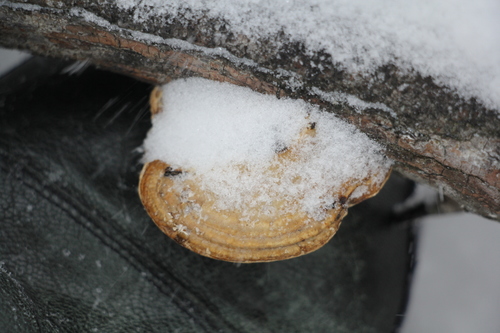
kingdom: Fungi
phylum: Basidiomycota
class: Agaricomycetes
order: Polyporales
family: Polyporaceae
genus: Daedaleopsis
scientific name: Daedaleopsis confragosa
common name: Blushing bracket
